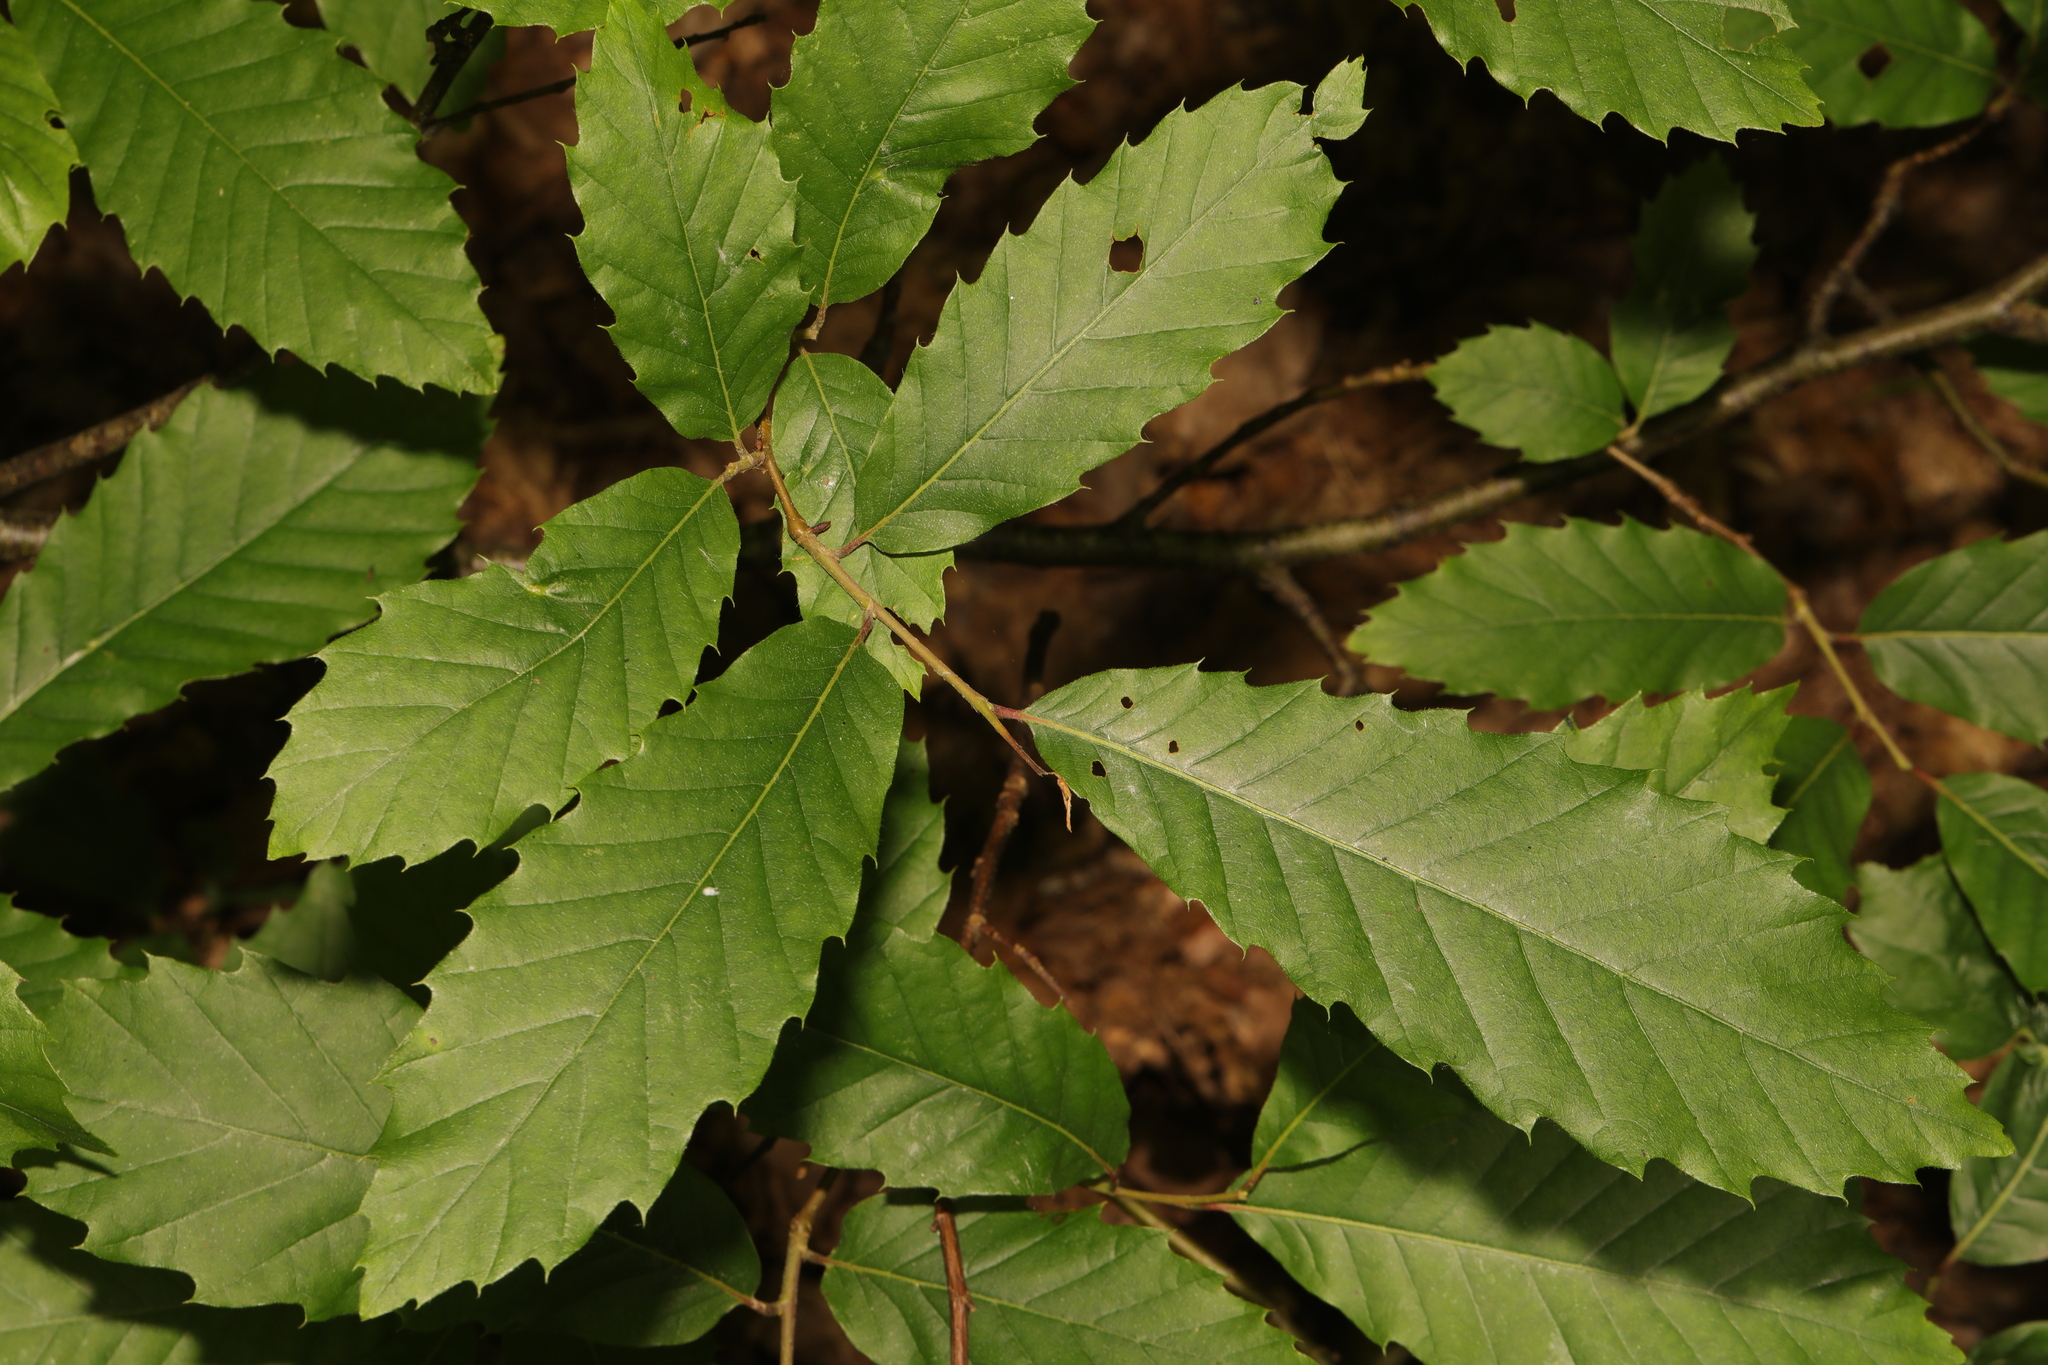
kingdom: Plantae
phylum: Tracheophyta
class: Magnoliopsida
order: Fagales
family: Fagaceae
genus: Castanea
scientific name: Castanea sativa
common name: Sweet chestnut
